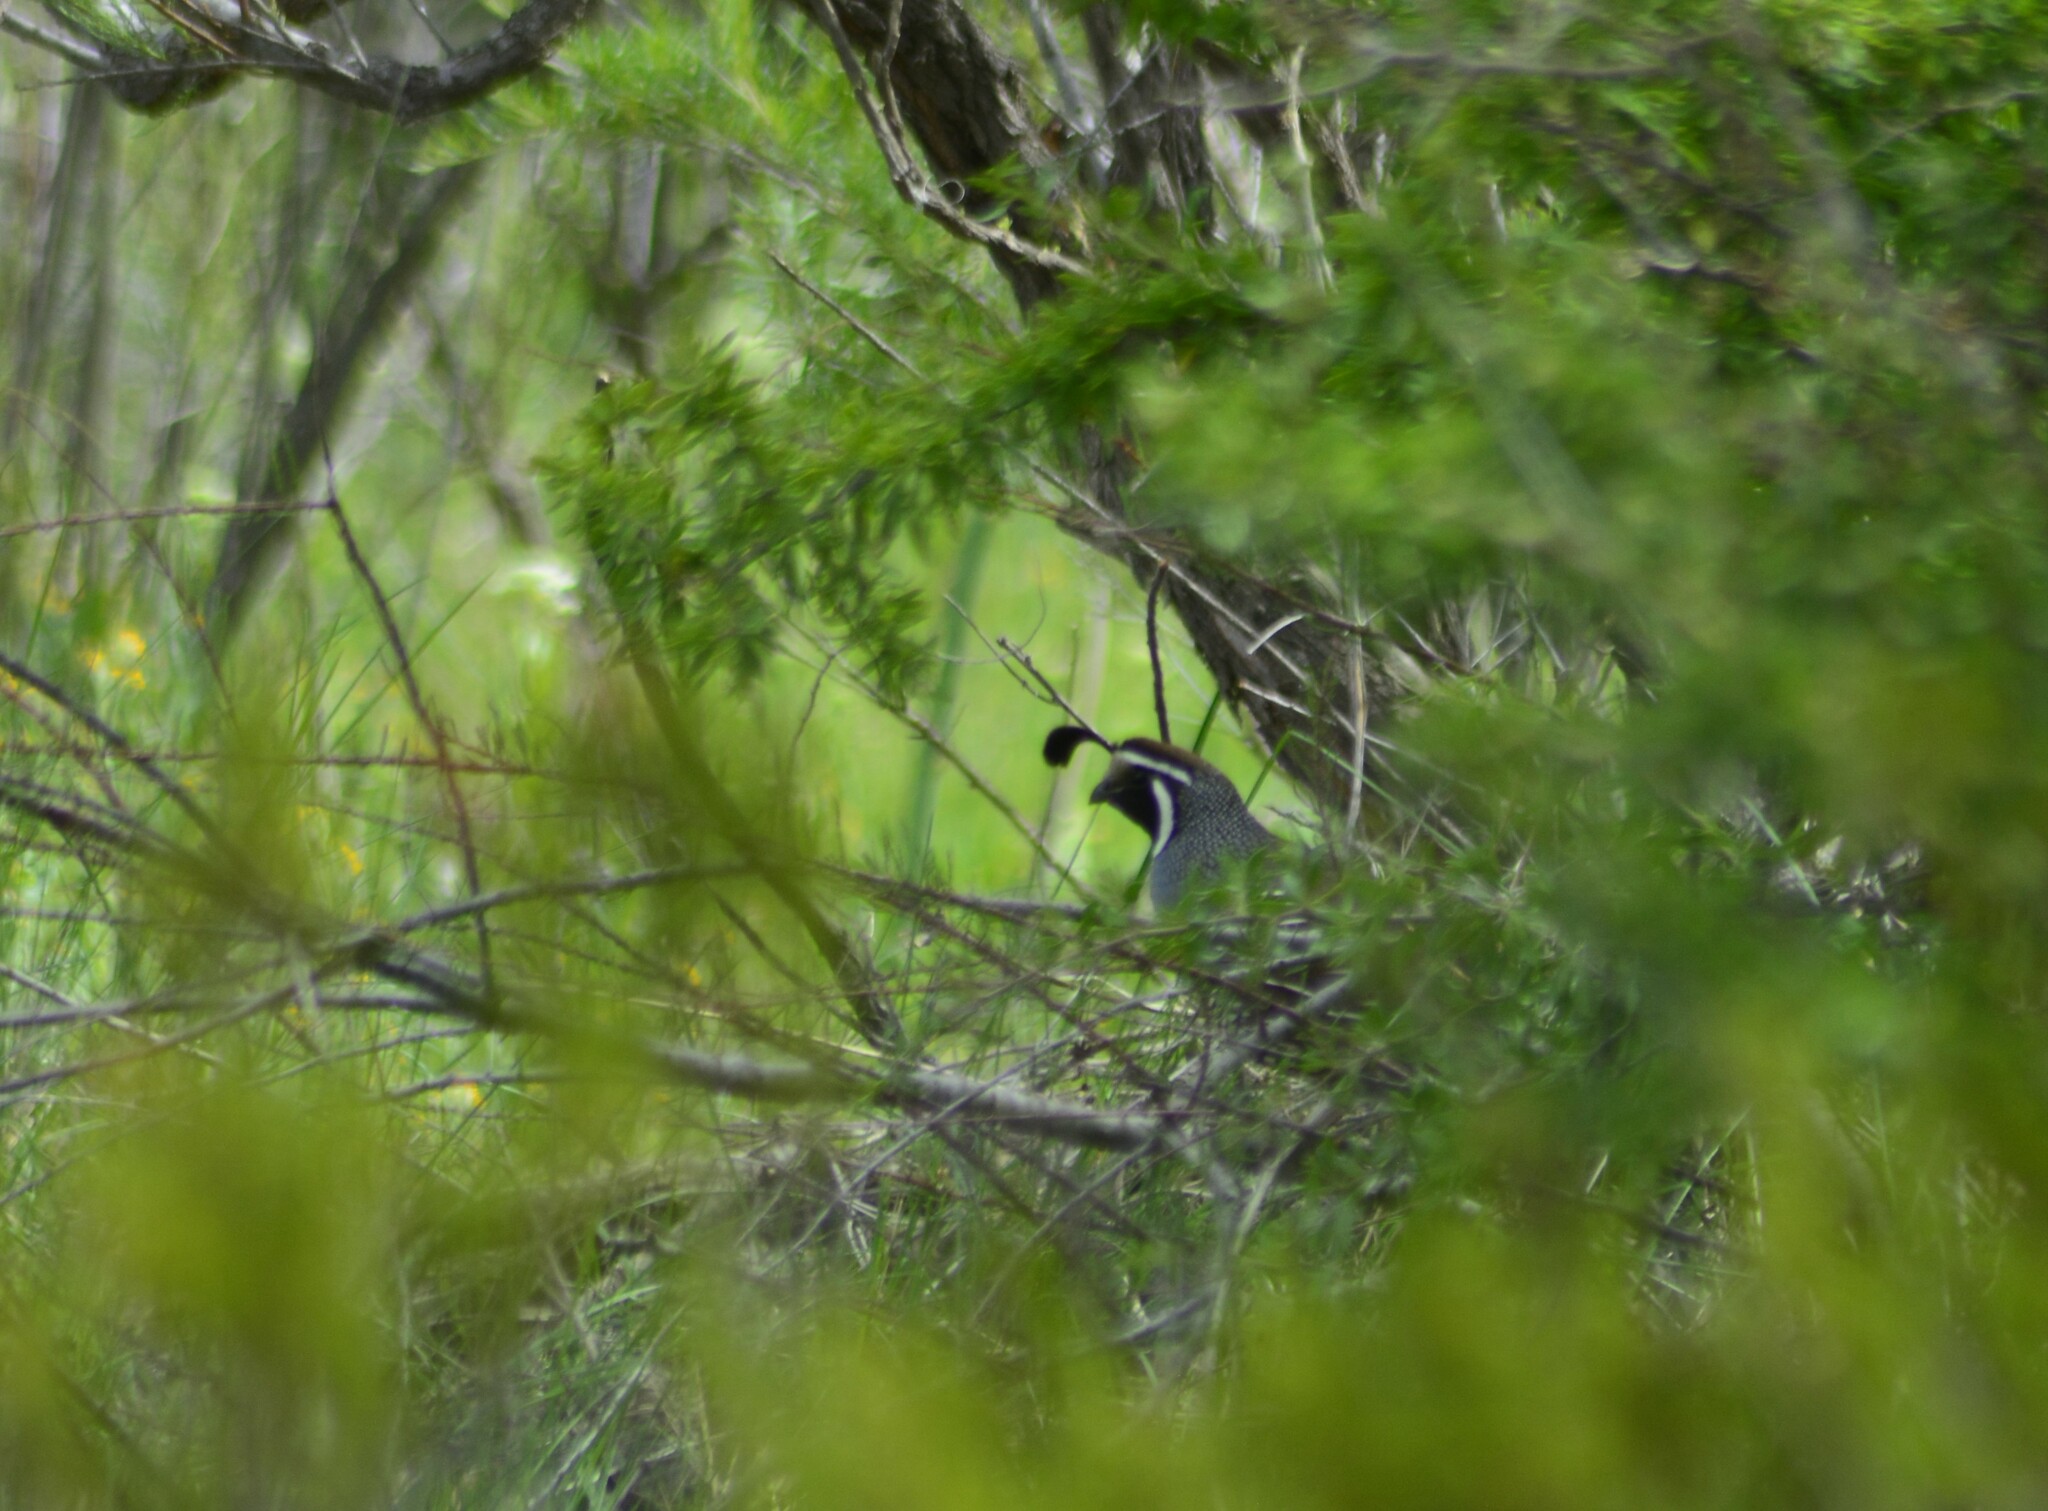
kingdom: Animalia
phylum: Chordata
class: Aves
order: Galliformes
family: Odontophoridae
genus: Callipepla
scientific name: Callipepla californica
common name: California quail
